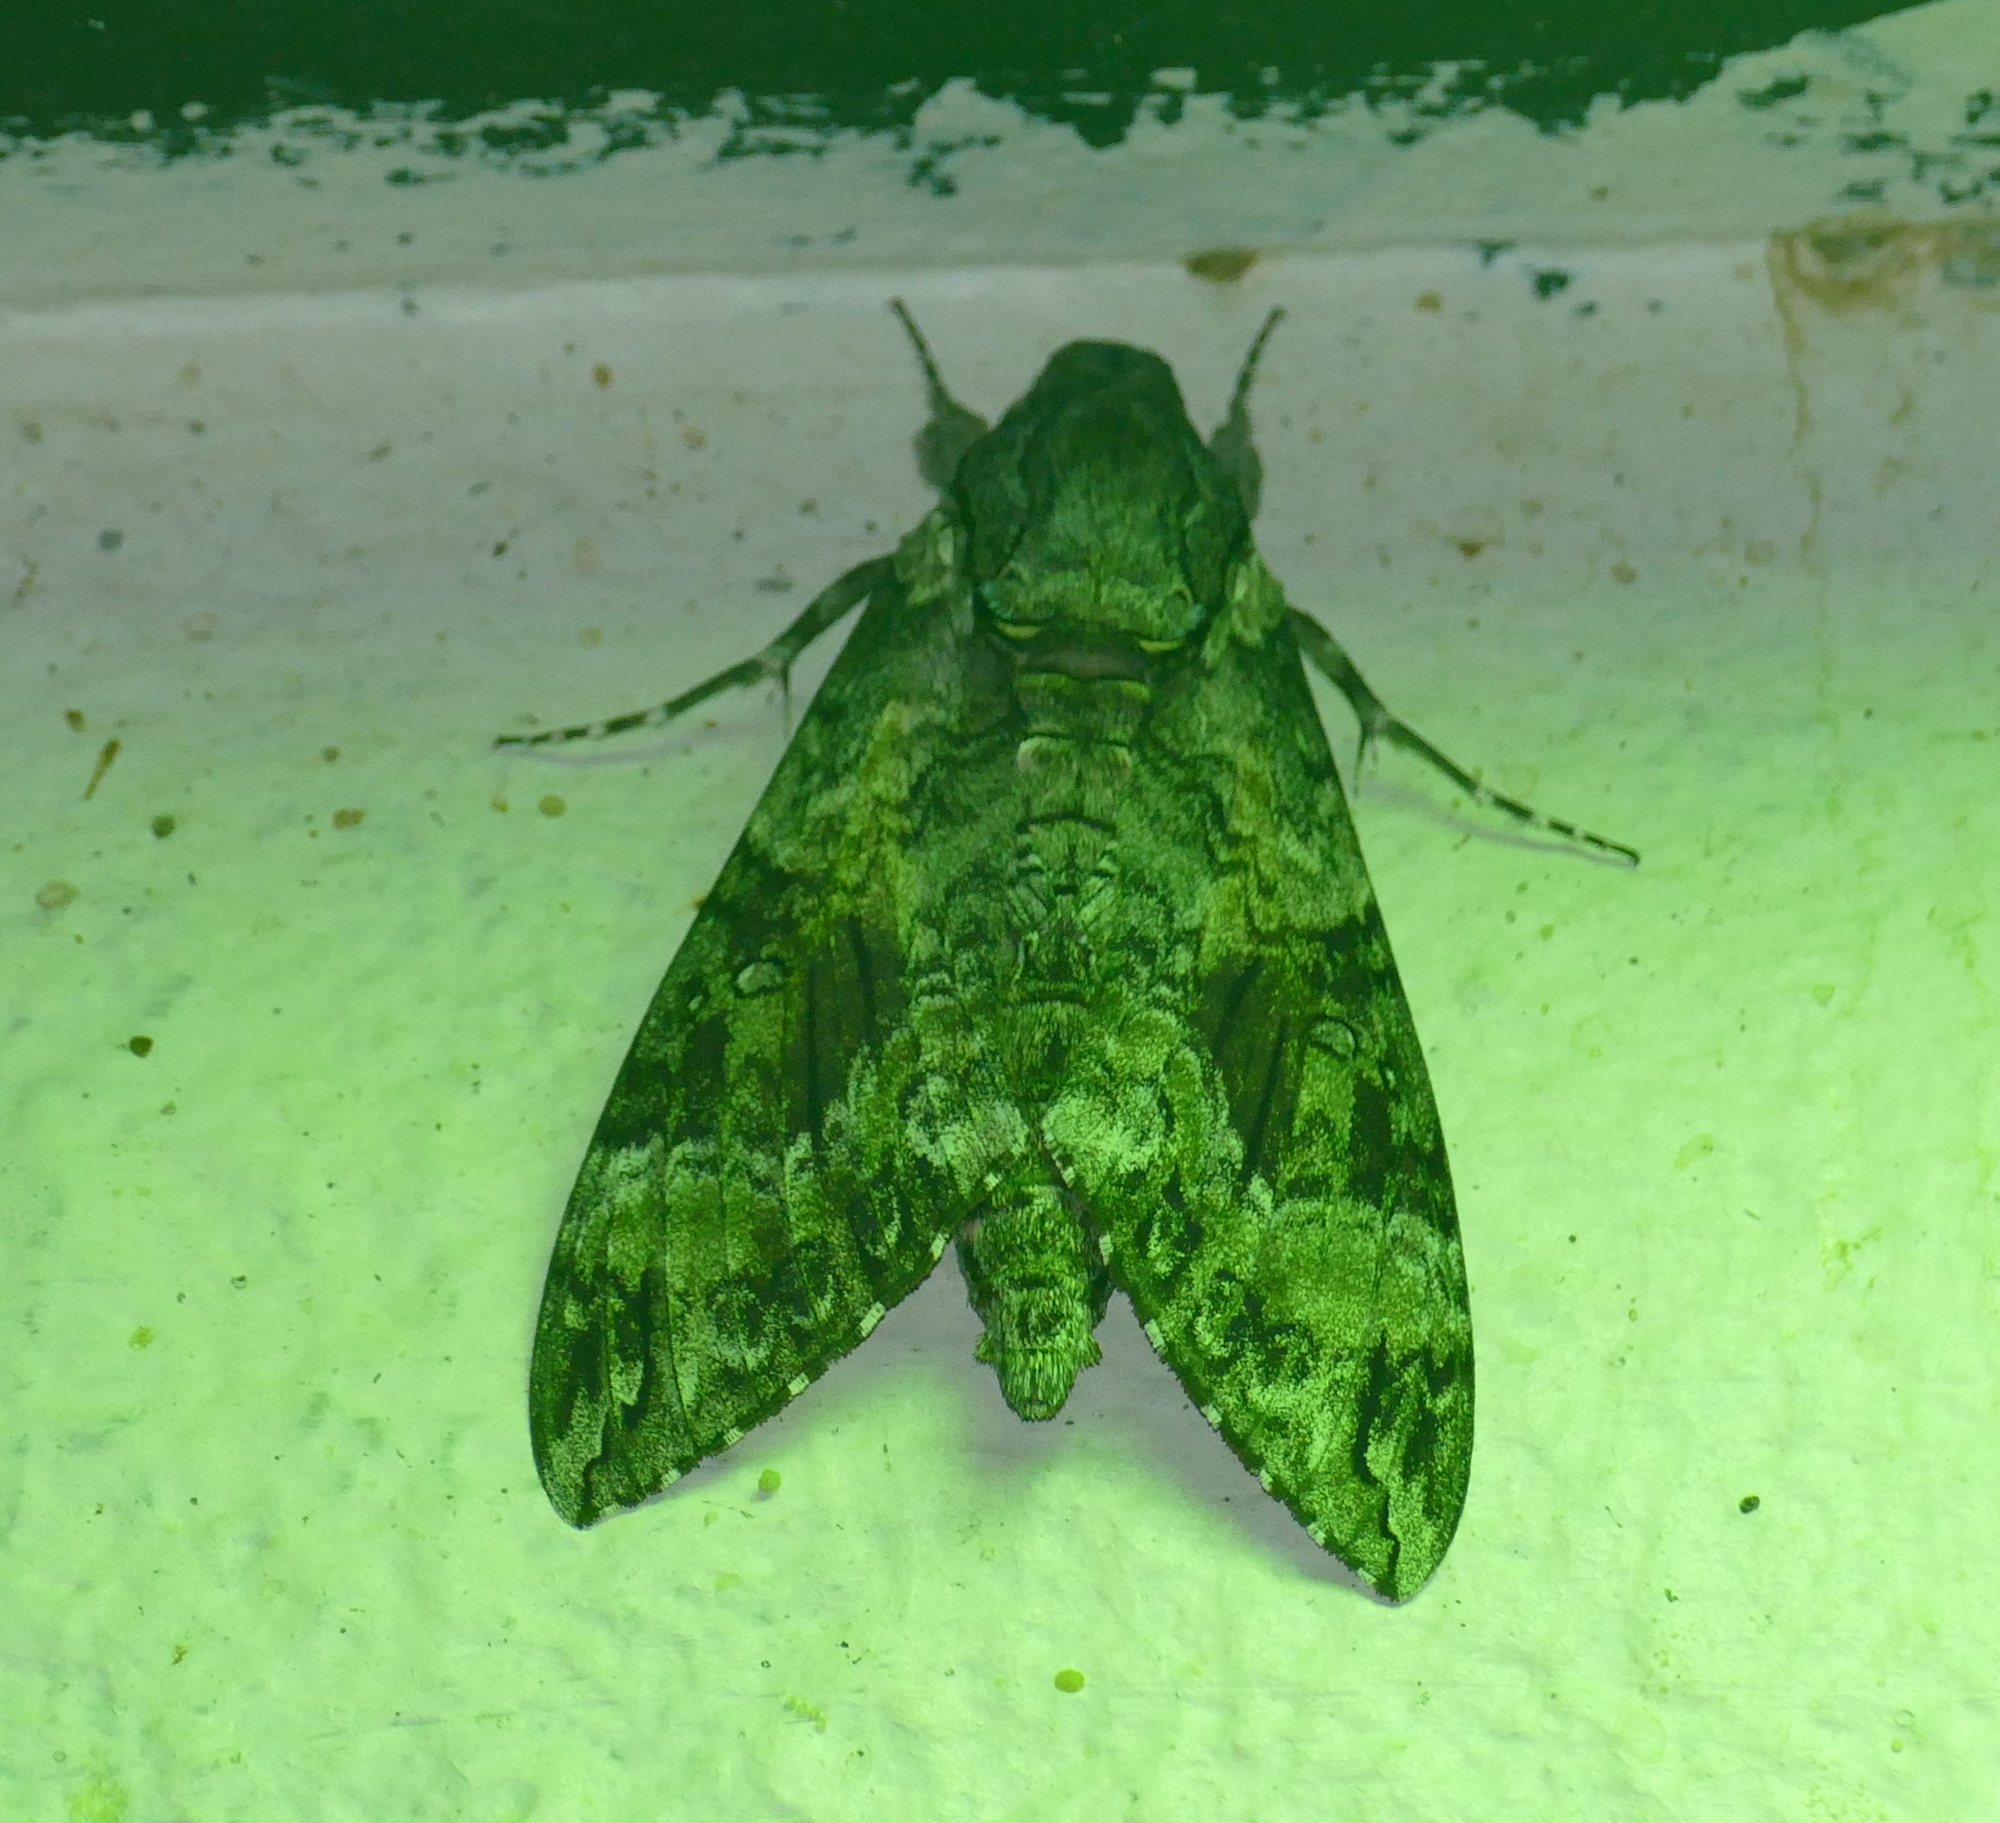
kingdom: Animalia
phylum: Arthropoda
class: Insecta
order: Lepidoptera
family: Sphingidae
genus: Agrius
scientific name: Agrius cingulata
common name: Pink-spotted hawkmoth
